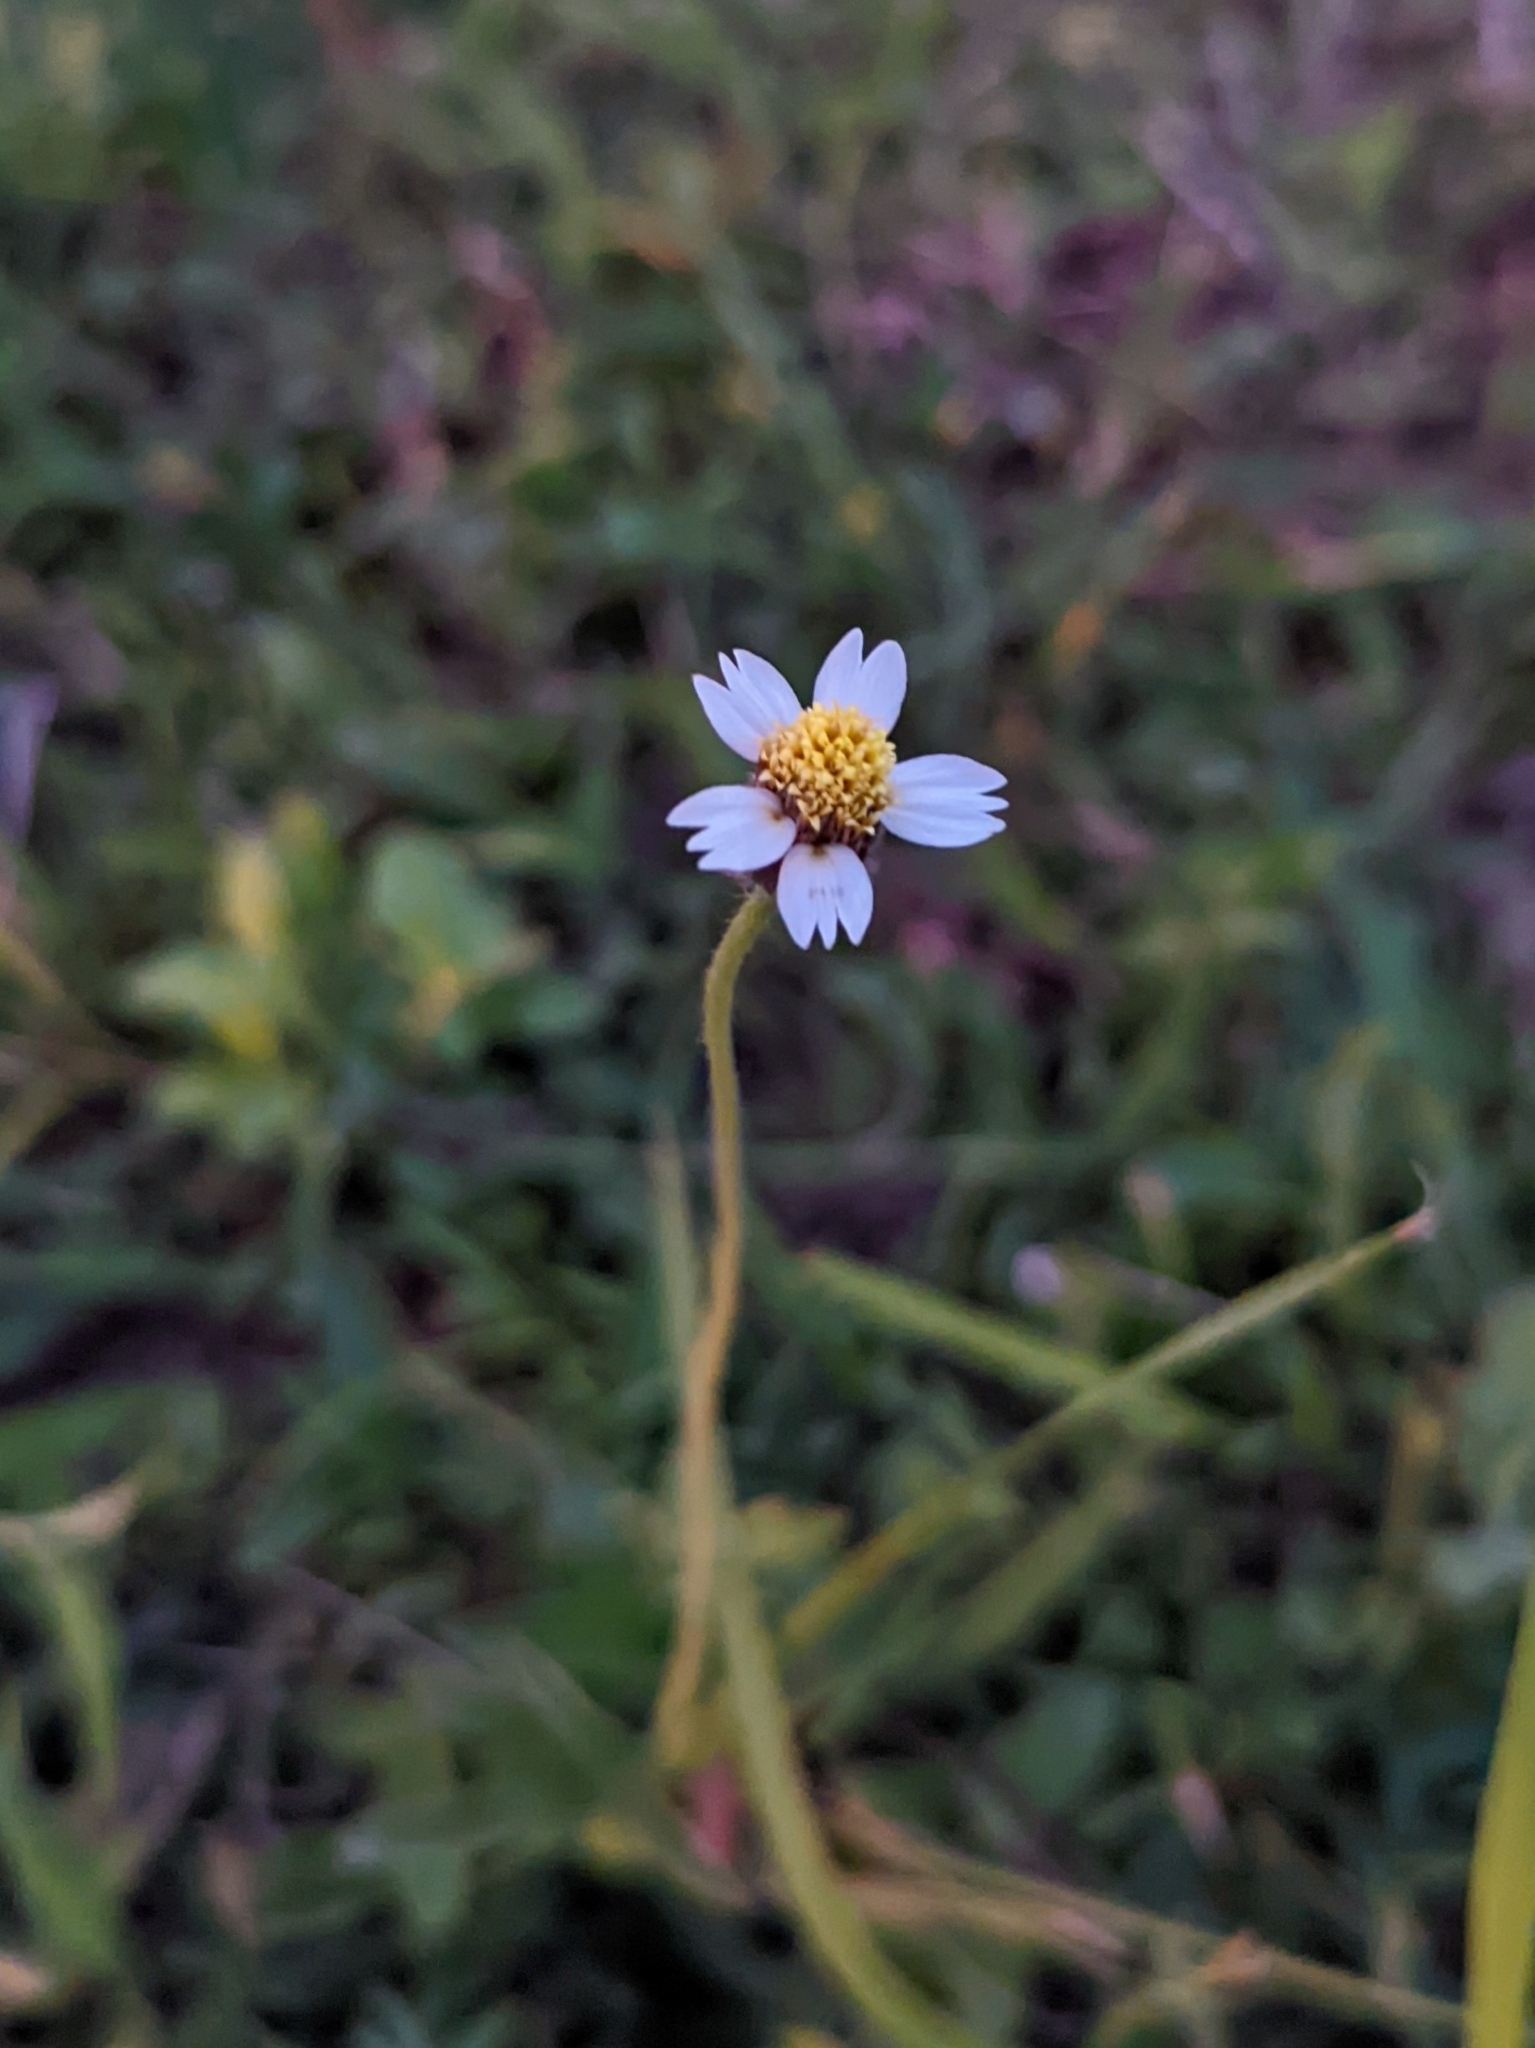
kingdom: Plantae
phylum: Tracheophyta
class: Magnoliopsida
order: Asterales
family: Asteraceae
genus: Tridax
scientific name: Tridax procumbens
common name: Coatbuttons
